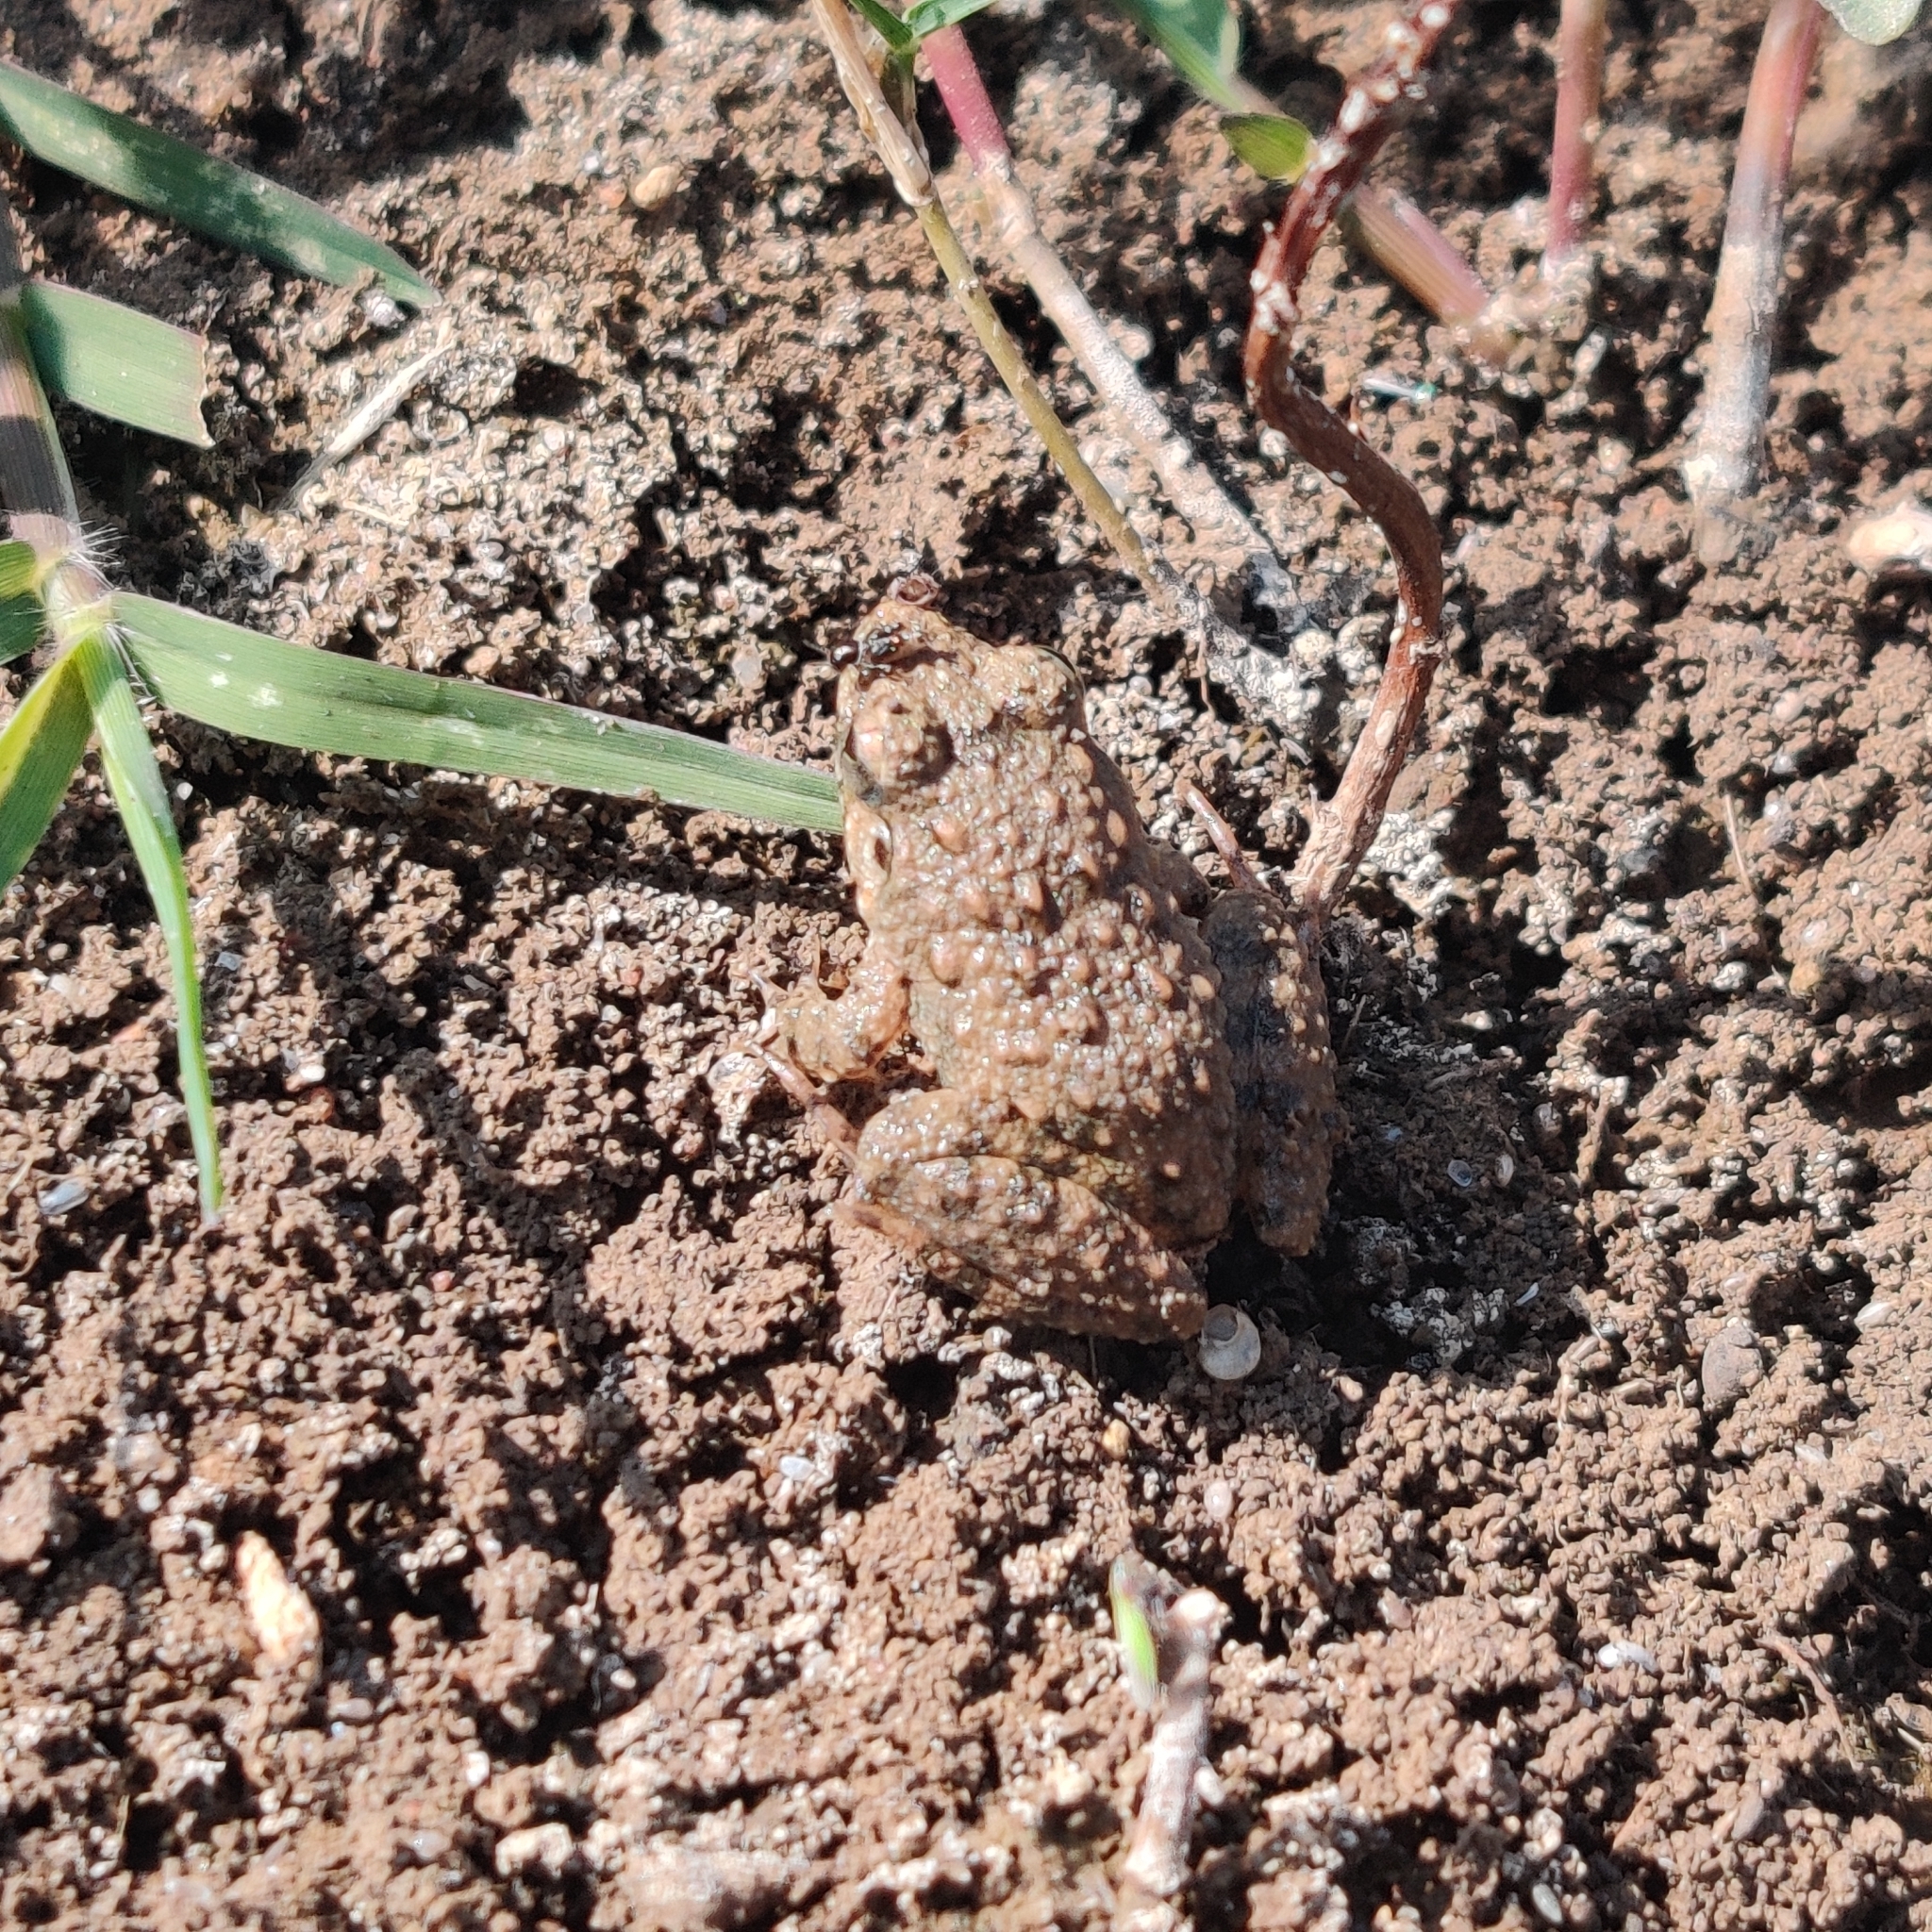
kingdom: Animalia
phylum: Chordata
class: Amphibia
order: Anura
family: Dicroglossidae
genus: Fejervarya
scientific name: Fejervarya limnocharis
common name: Asian grass frog/common pond frog/field frog/grass frog/indian rice frog
